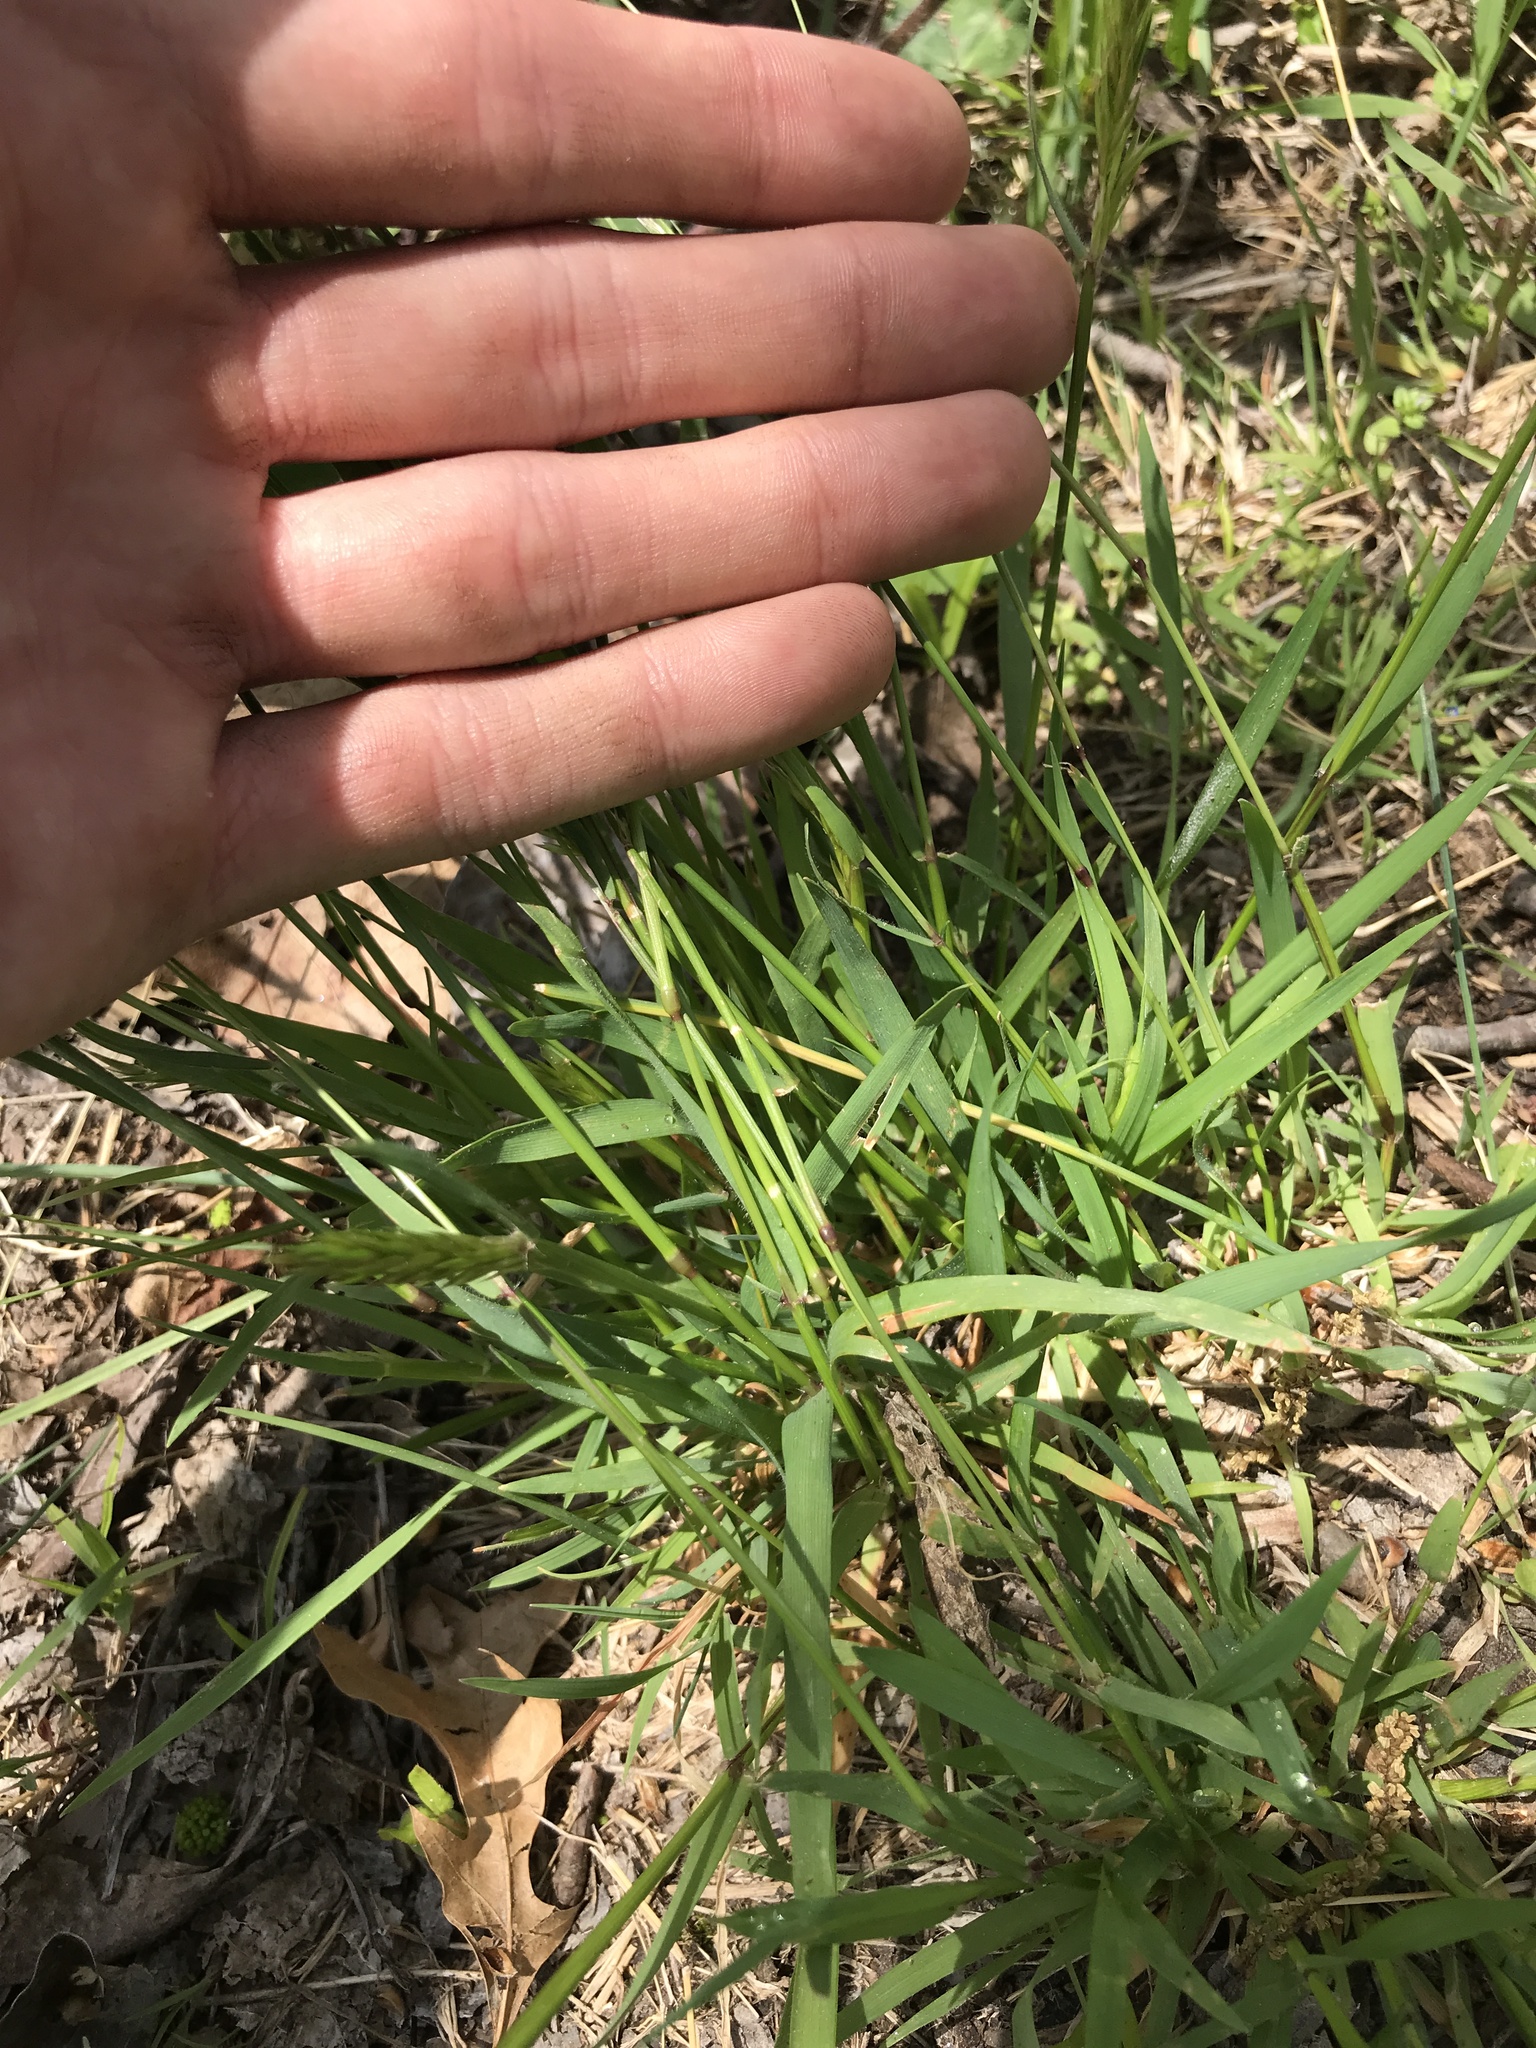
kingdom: Plantae
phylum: Tracheophyta
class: Liliopsida
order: Poales
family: Poaceae
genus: Anthoxanthum
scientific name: Anthoxanthum odoratum
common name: Sweet vernalgrass
